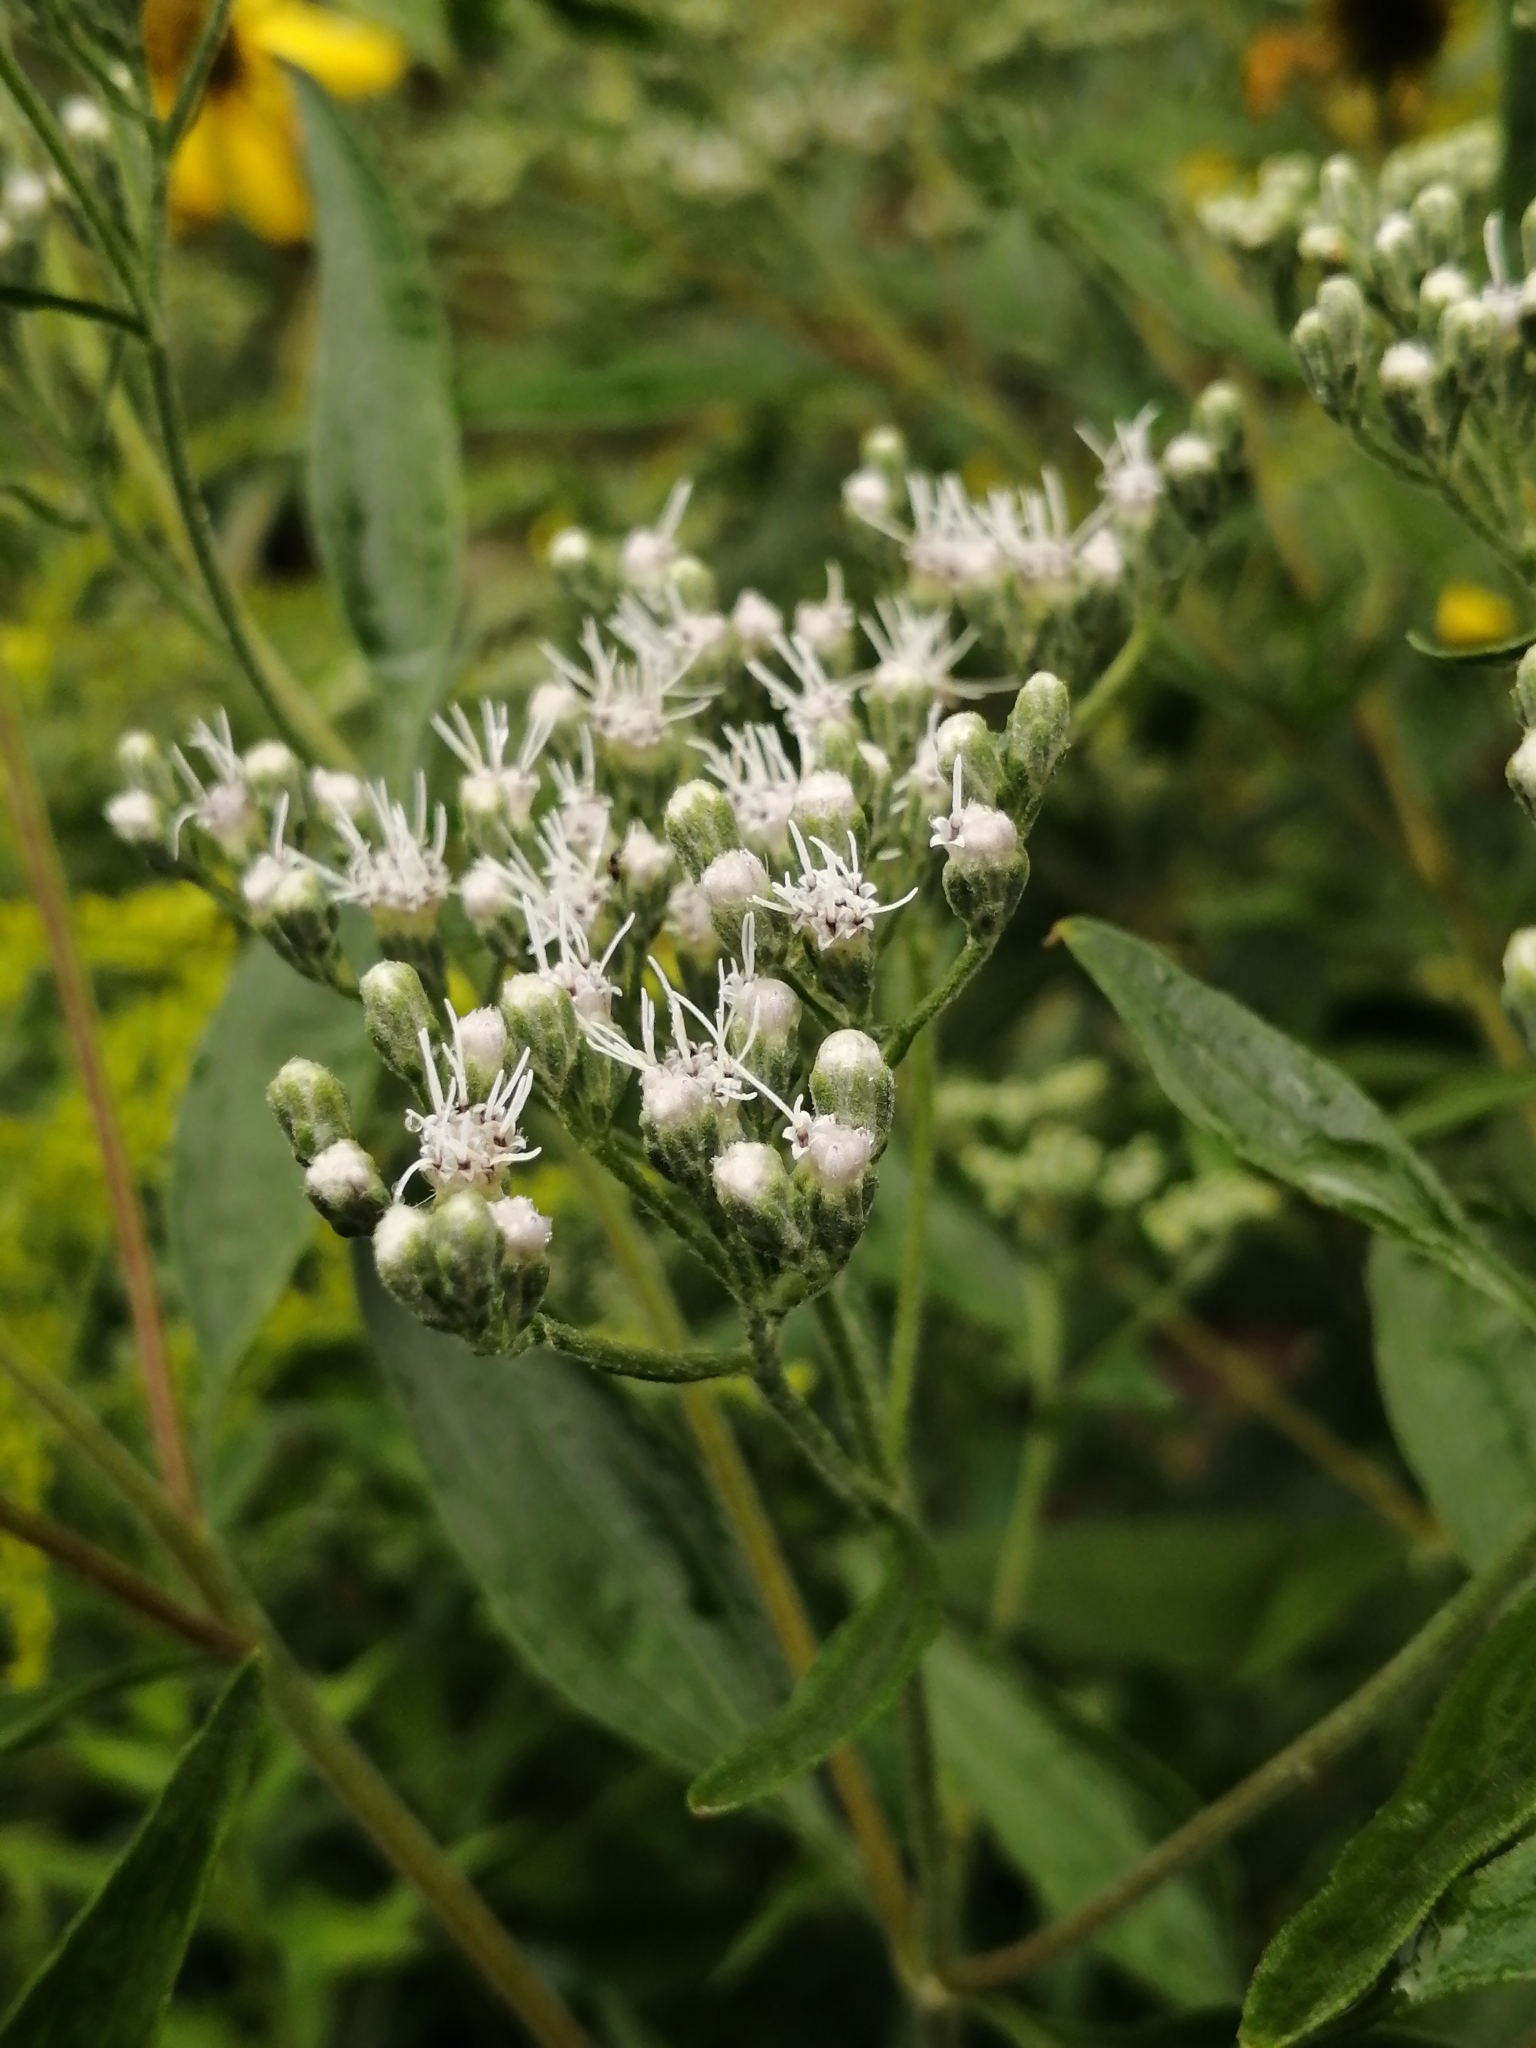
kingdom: Plantae
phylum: Tracheophyta
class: Magnoliopsida
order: Asterales
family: Asteraceae
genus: Eupatorium
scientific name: Eupatorium serotinum
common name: Late boneset
